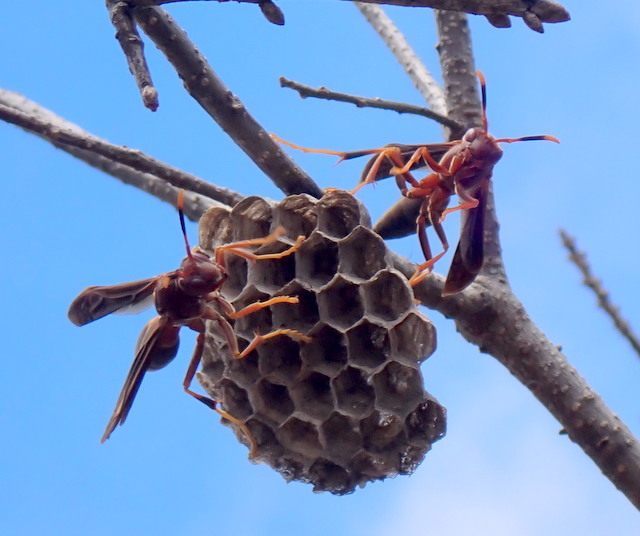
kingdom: Animalia
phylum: Arthropoda
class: Insecta
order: Hymenoptera
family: Eumenidae
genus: Polistes
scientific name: Polistes annularis
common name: Ringed paper wasp
